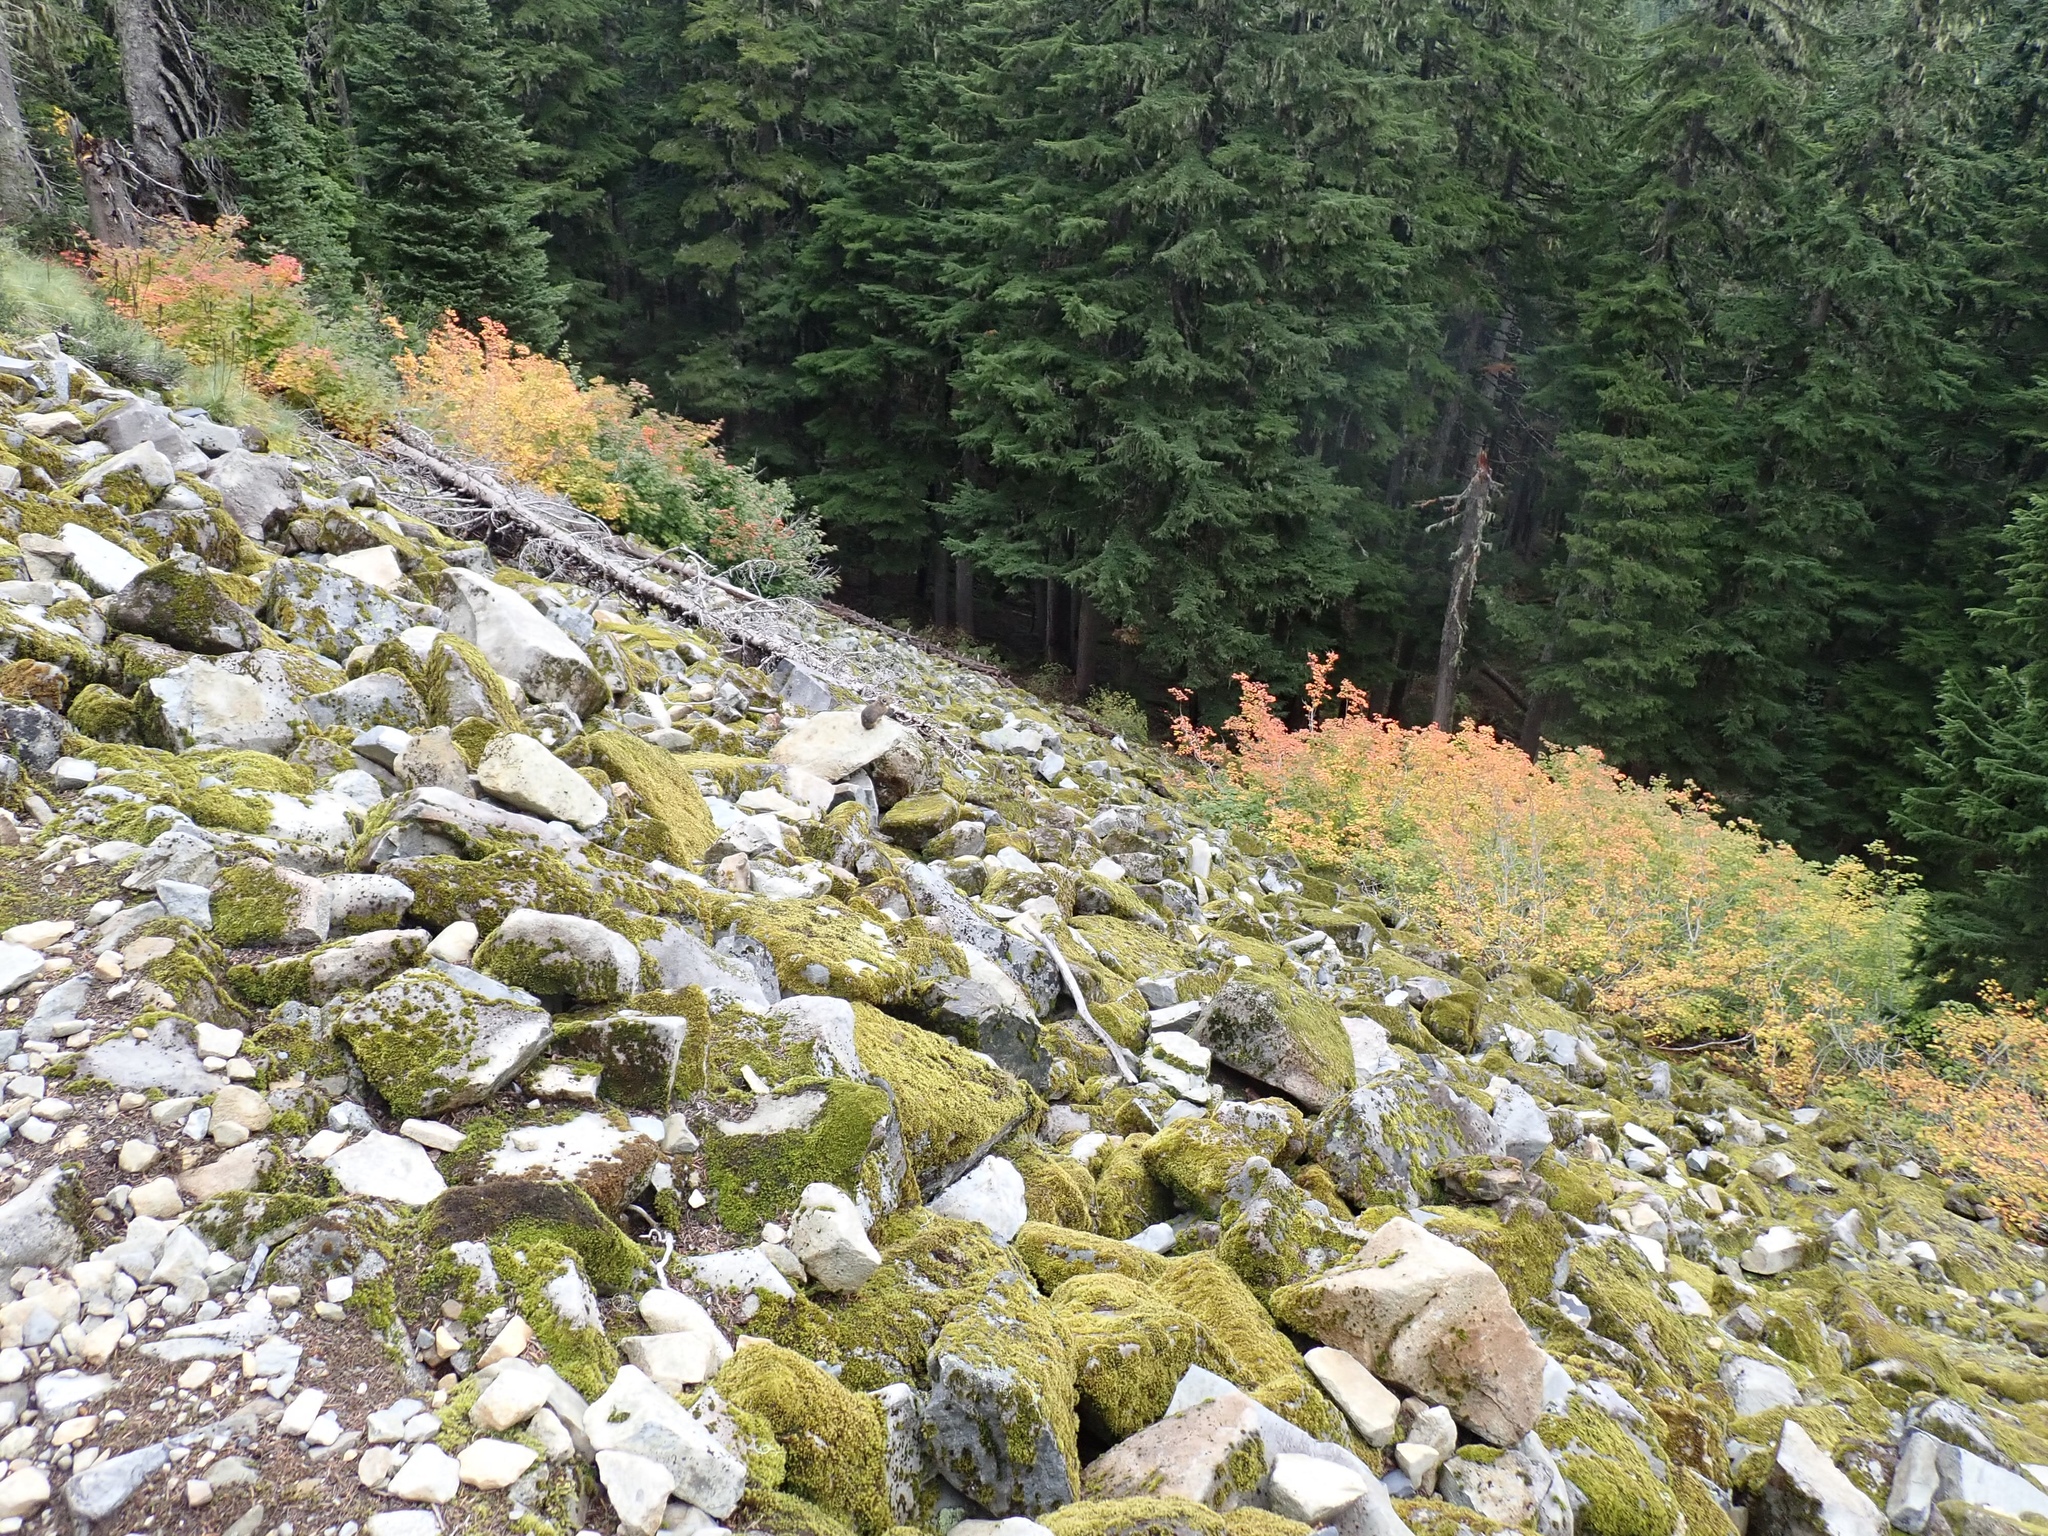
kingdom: Animalia
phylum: Chordata
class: Mammalia
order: Lagomorpha
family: Ochotonidae
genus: Ochotona
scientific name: Ochotona princeps
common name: American pika
